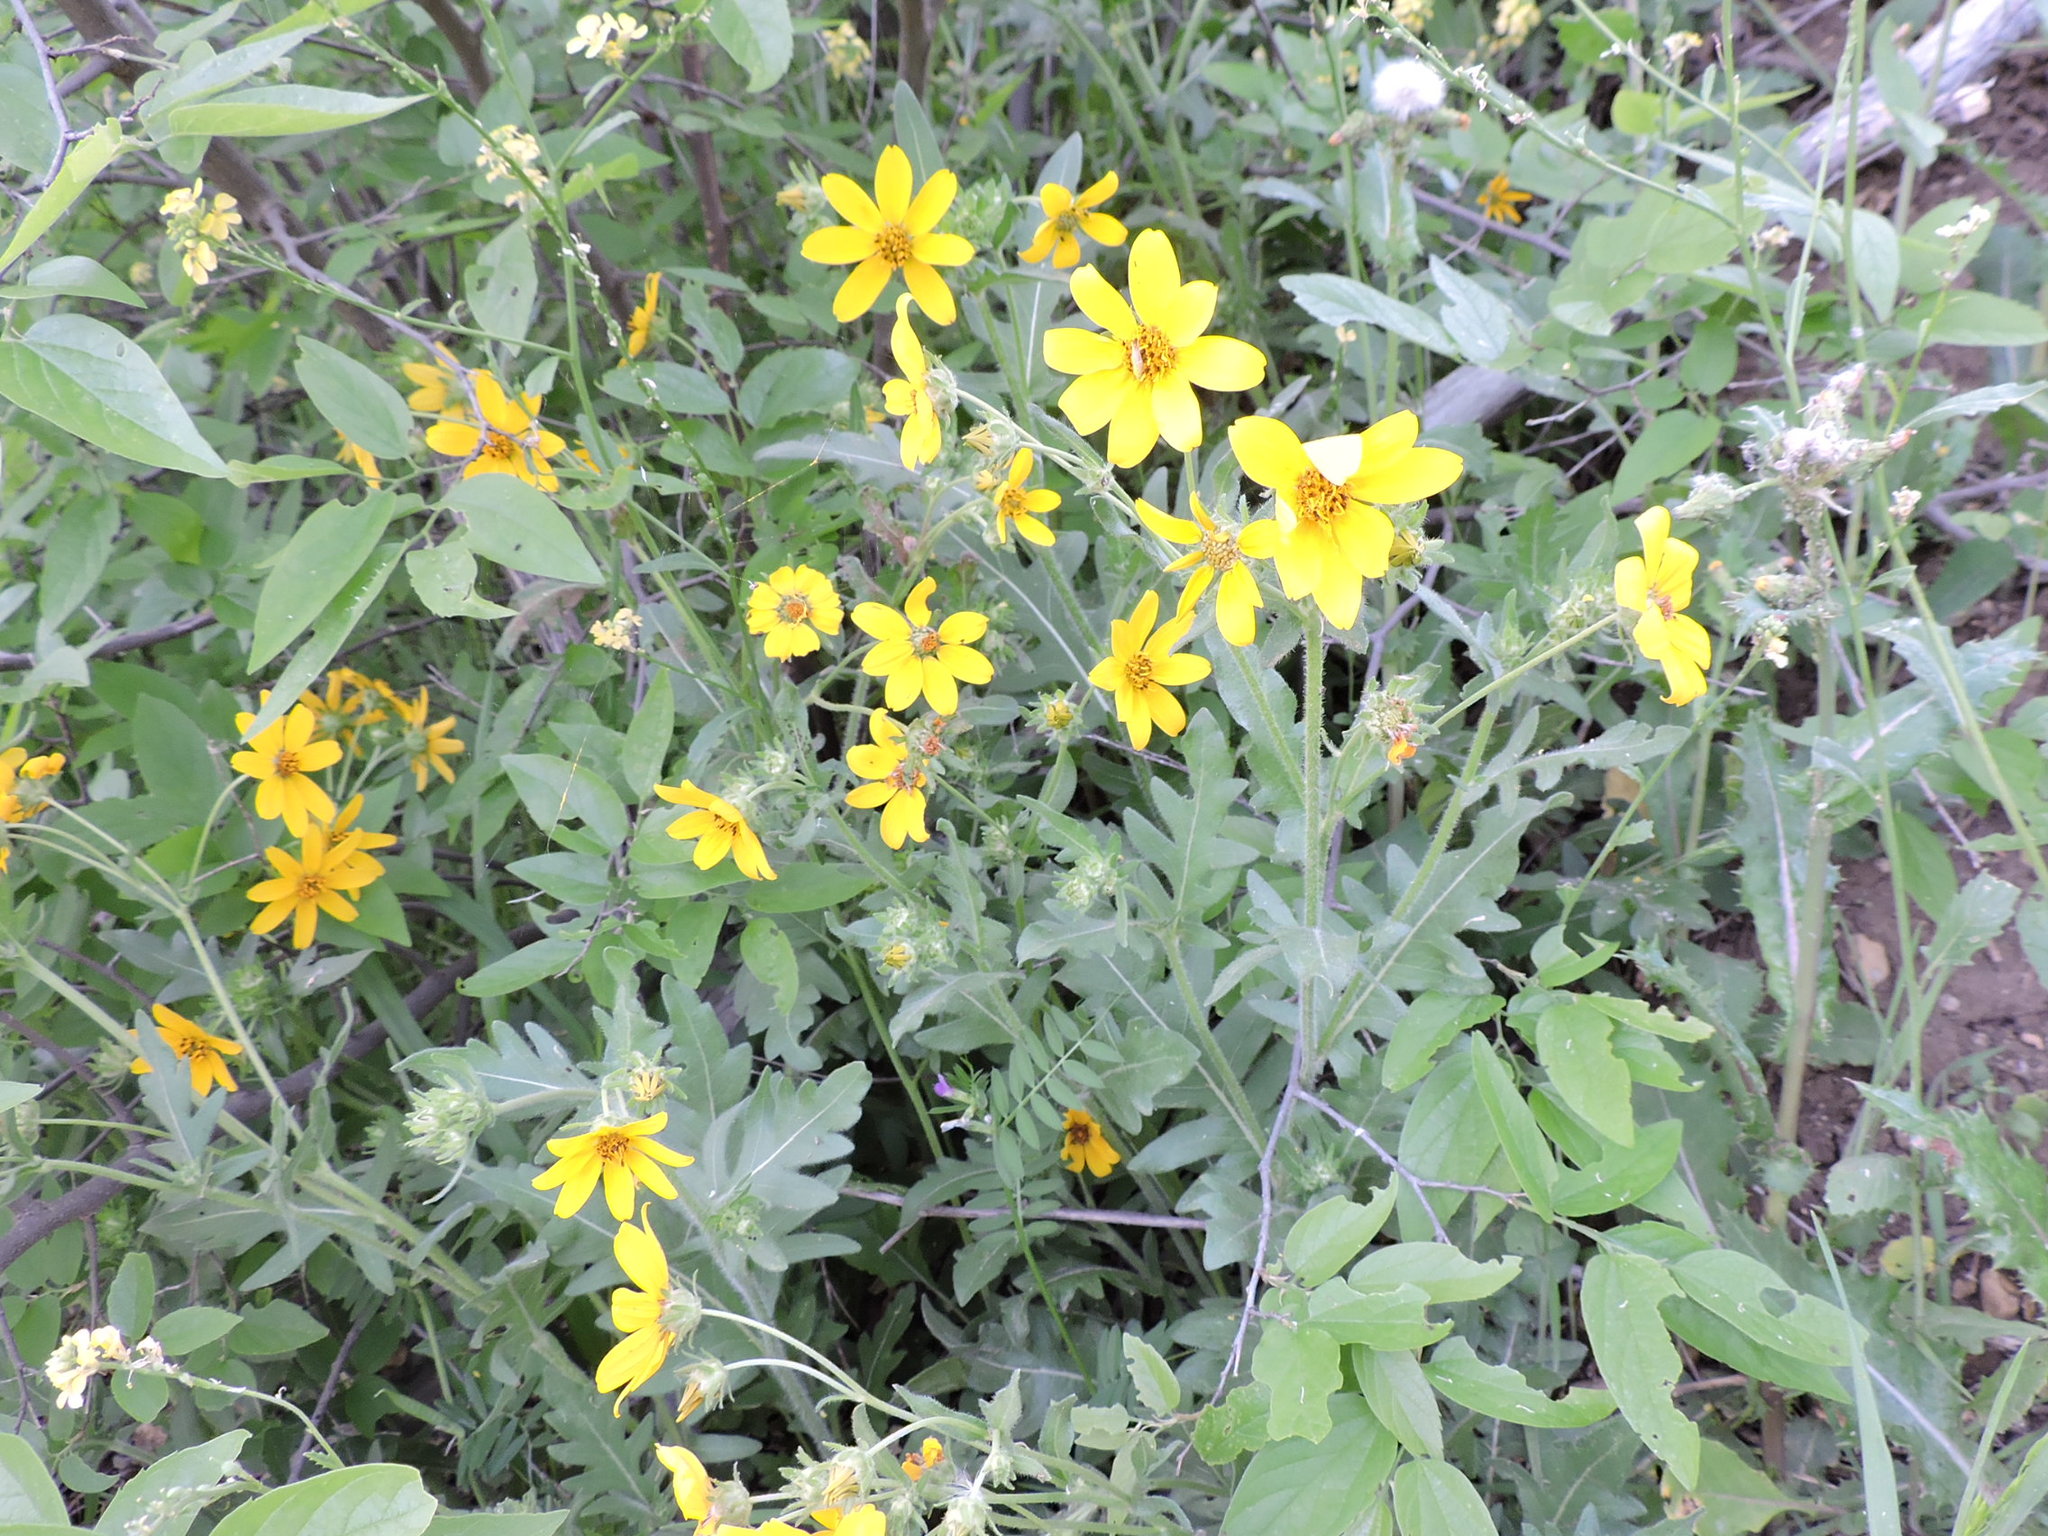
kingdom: Plantae
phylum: Tracheophyta
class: Magnoliopsida
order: Asterales
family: Asteraceae
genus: Engelmannia
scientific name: Engelmannia peristenia
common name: Engelmann's daisy
